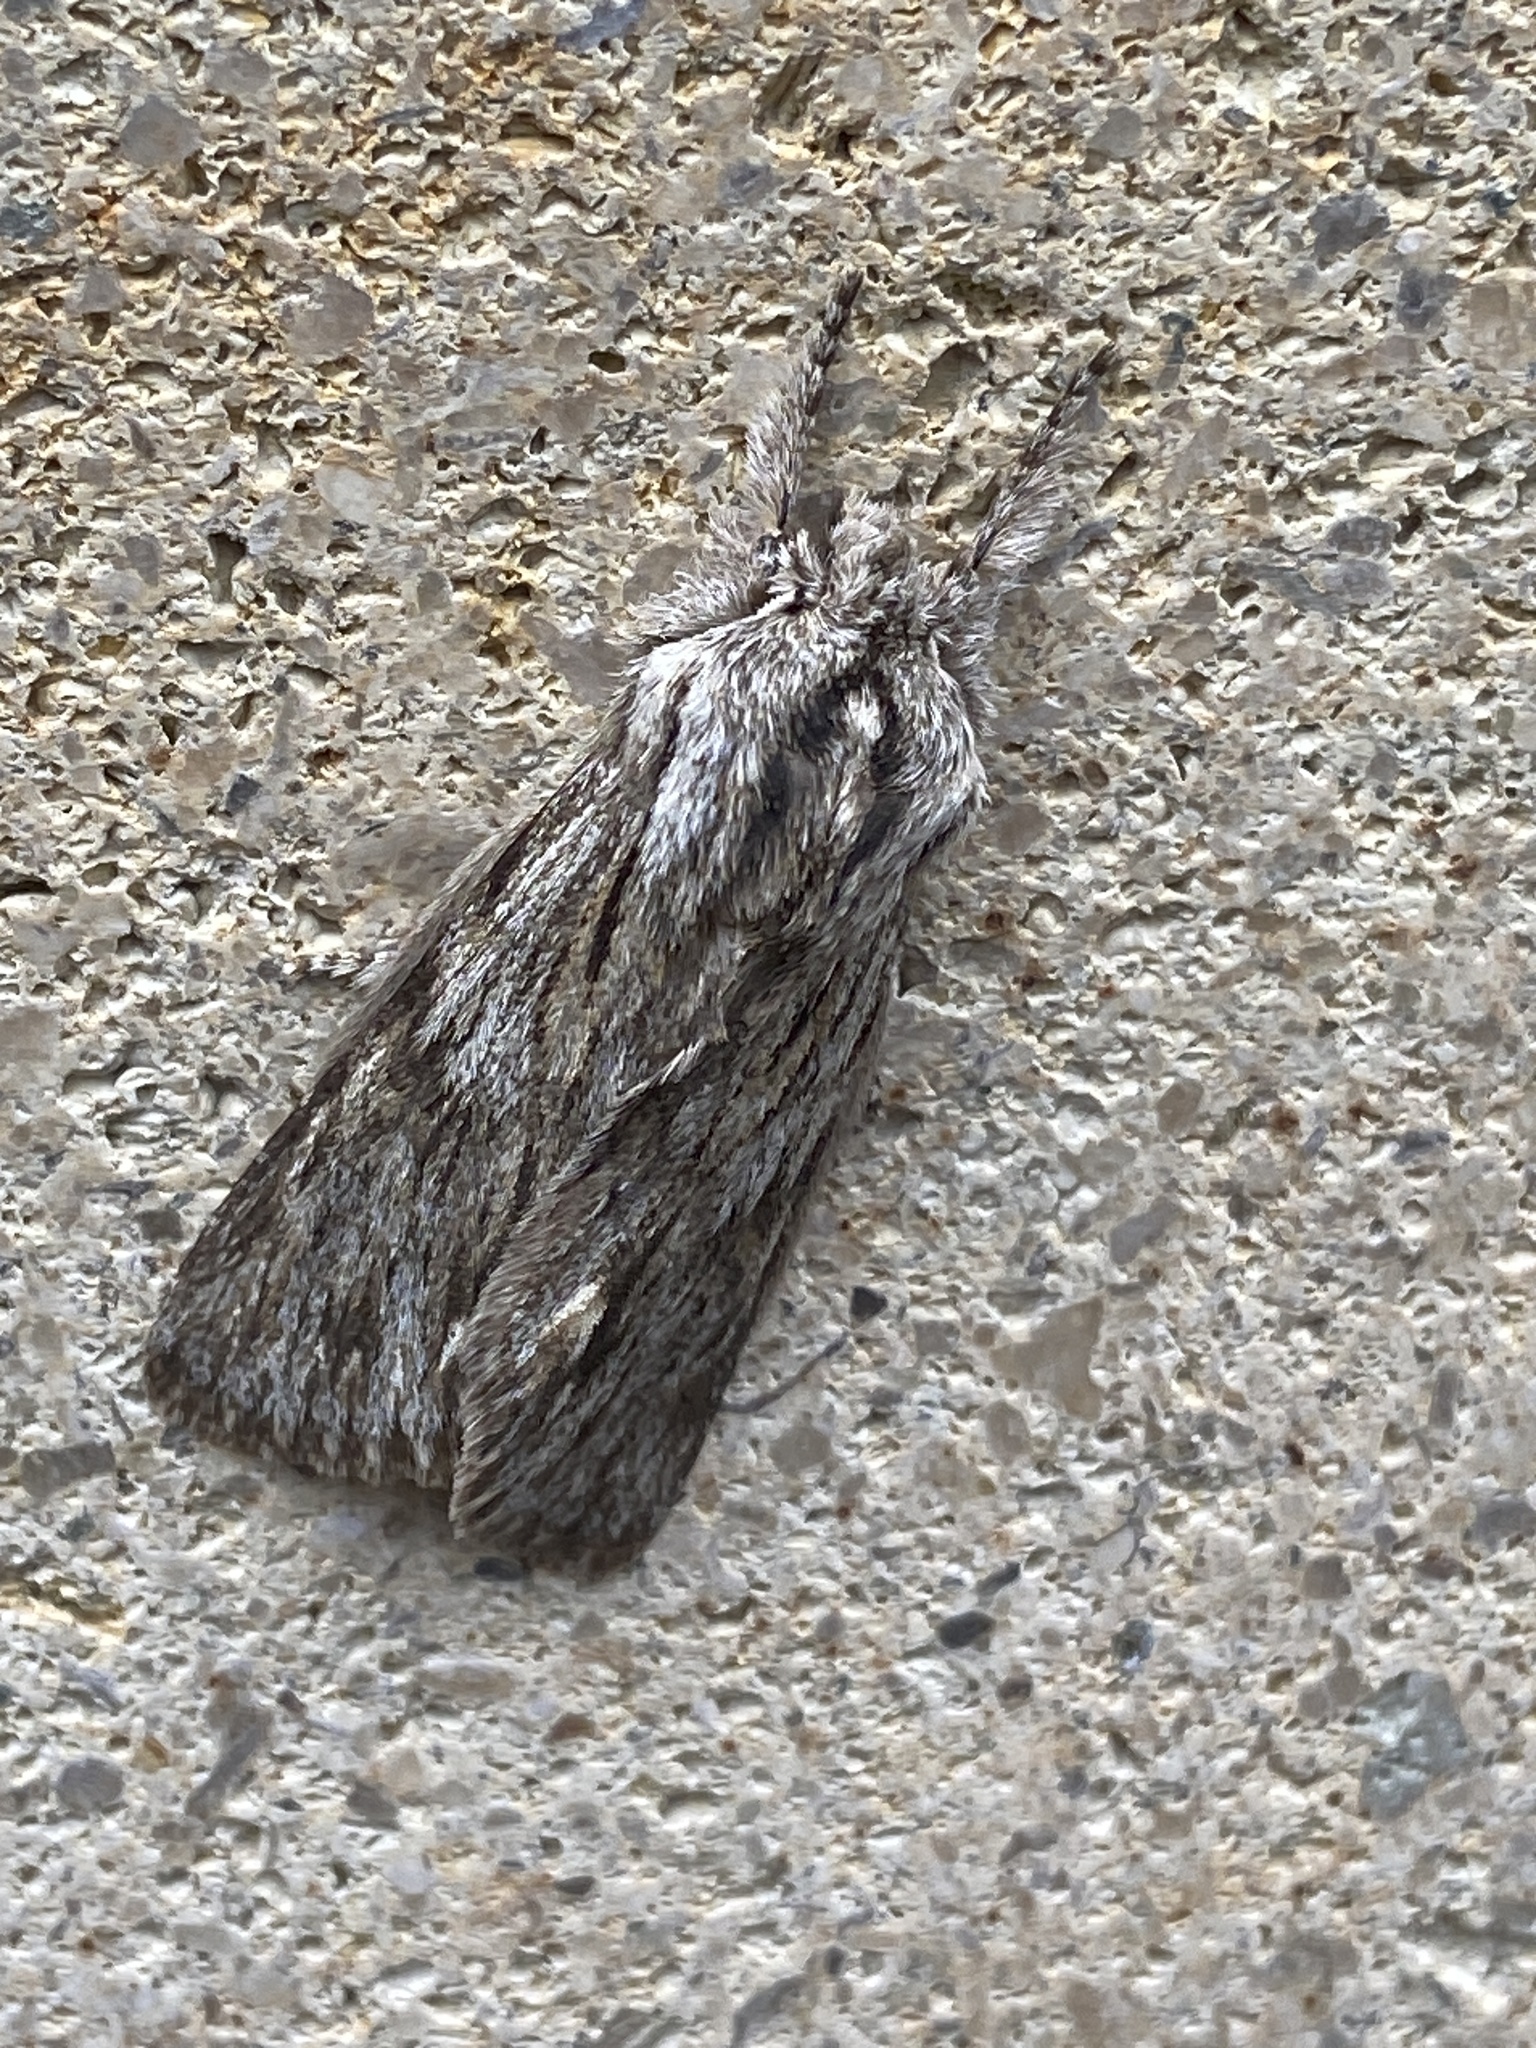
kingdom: Animalia
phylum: Arthropoda
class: Insecta
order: Lepidoptera
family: Noctuidae
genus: Asteroscopus
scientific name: Asteroscopus sphinx
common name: The sprawler
